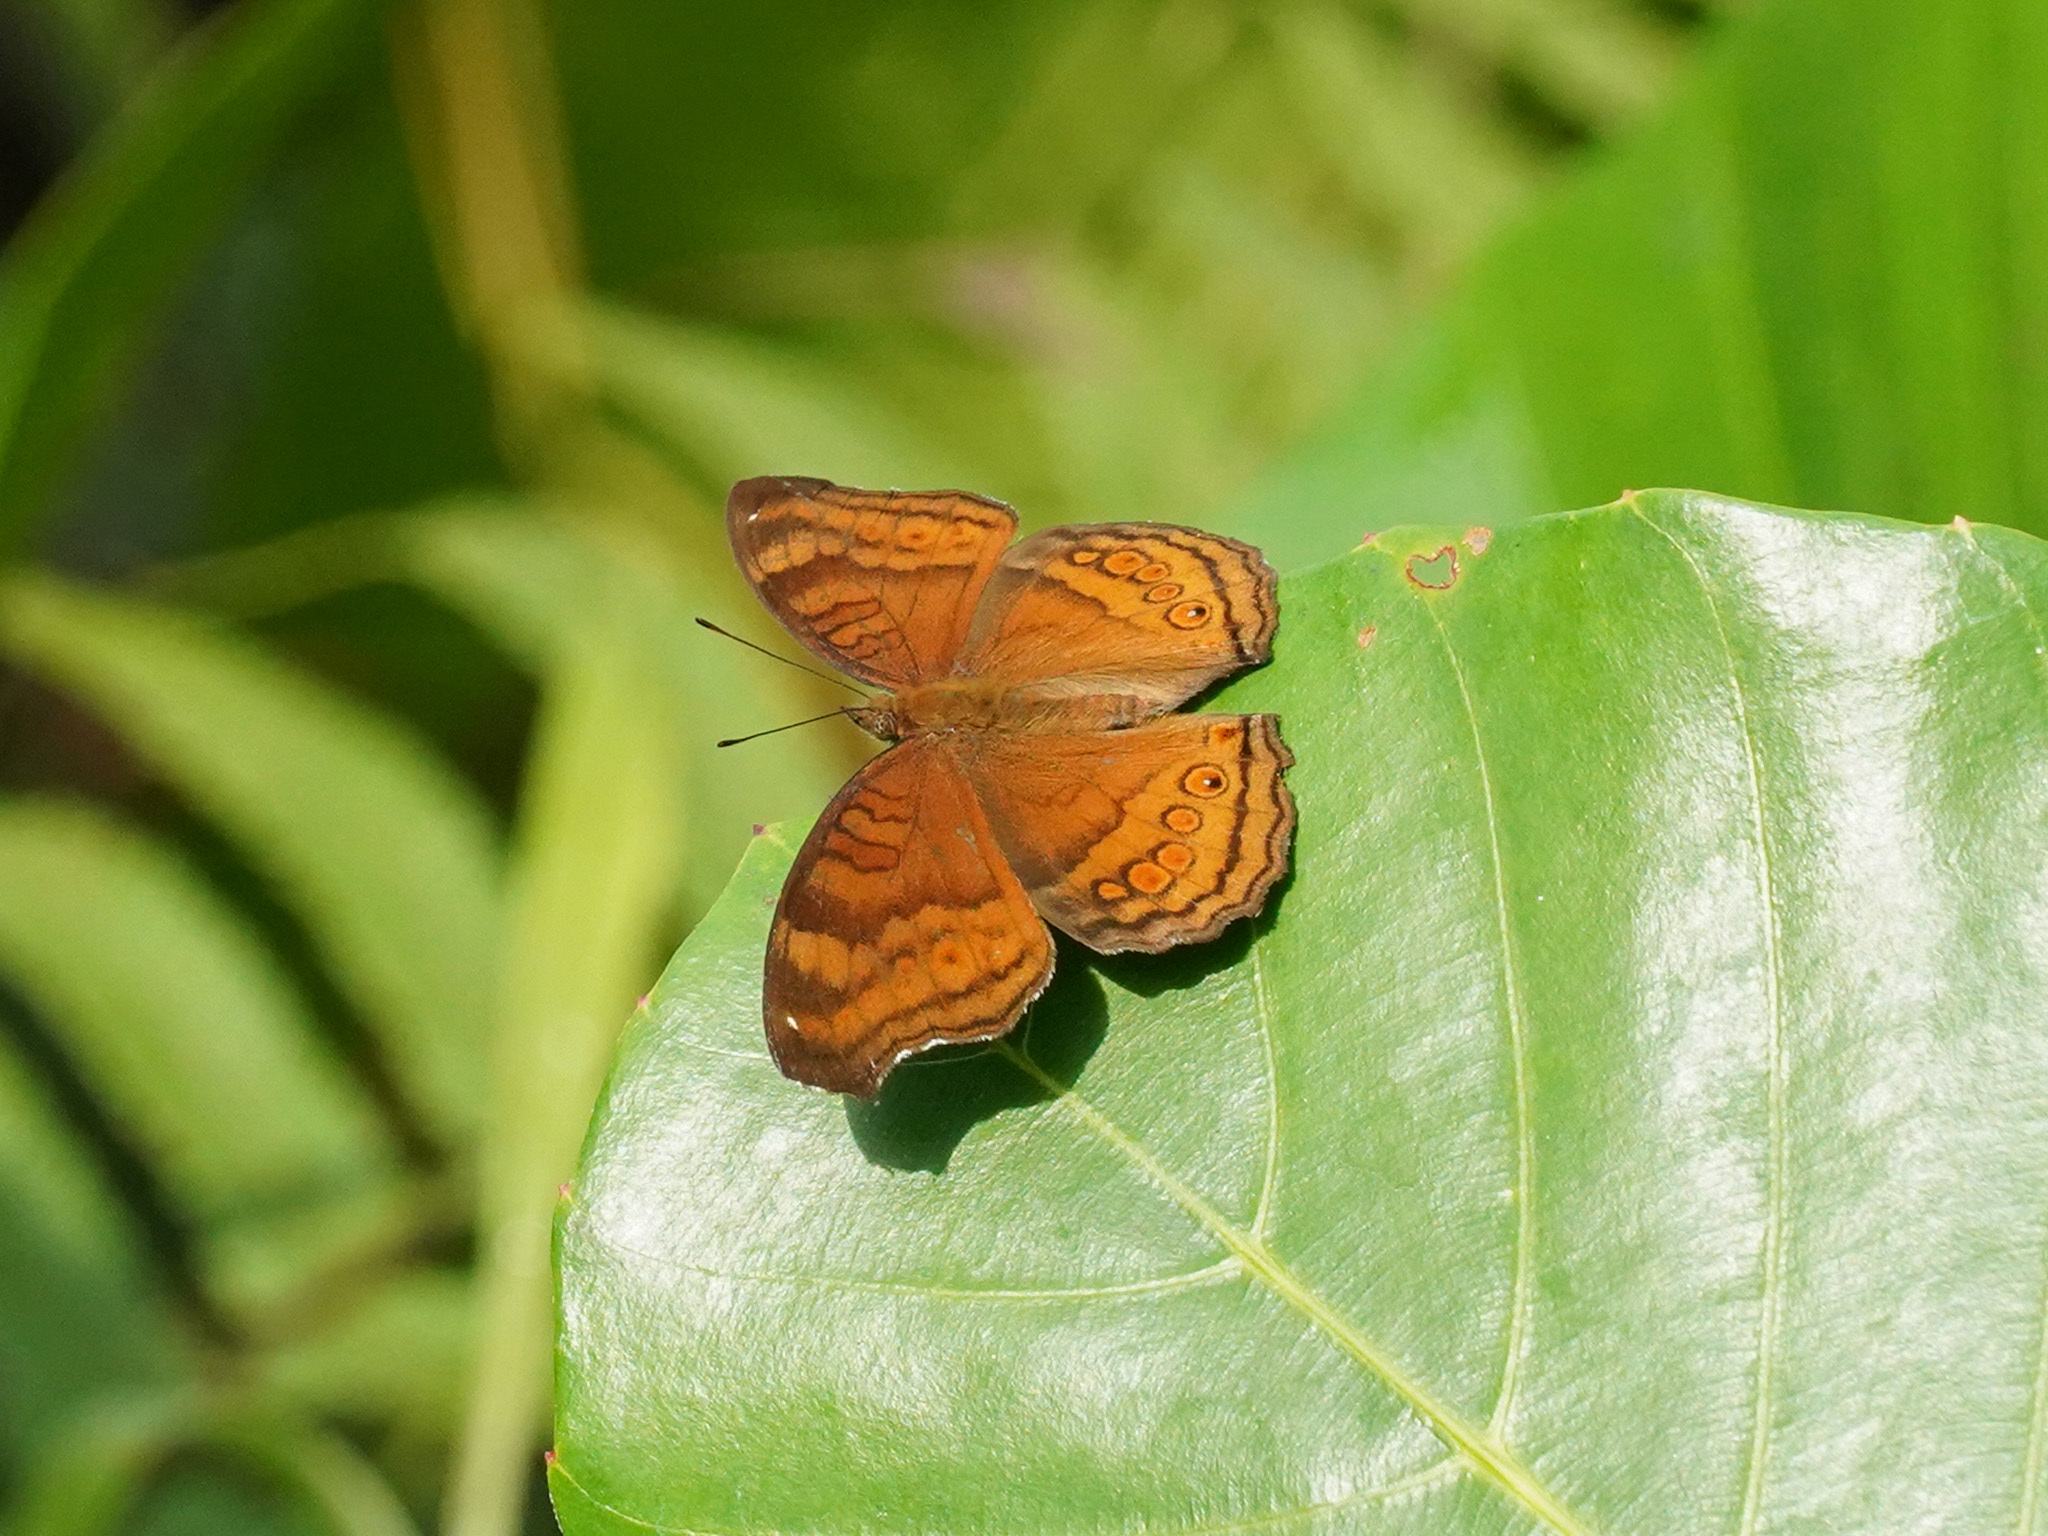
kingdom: Animalia
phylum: Arthropoda
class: Insecta
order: Lepidoptera
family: Nymphalidae
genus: Junonia
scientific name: Junonia hedonia
